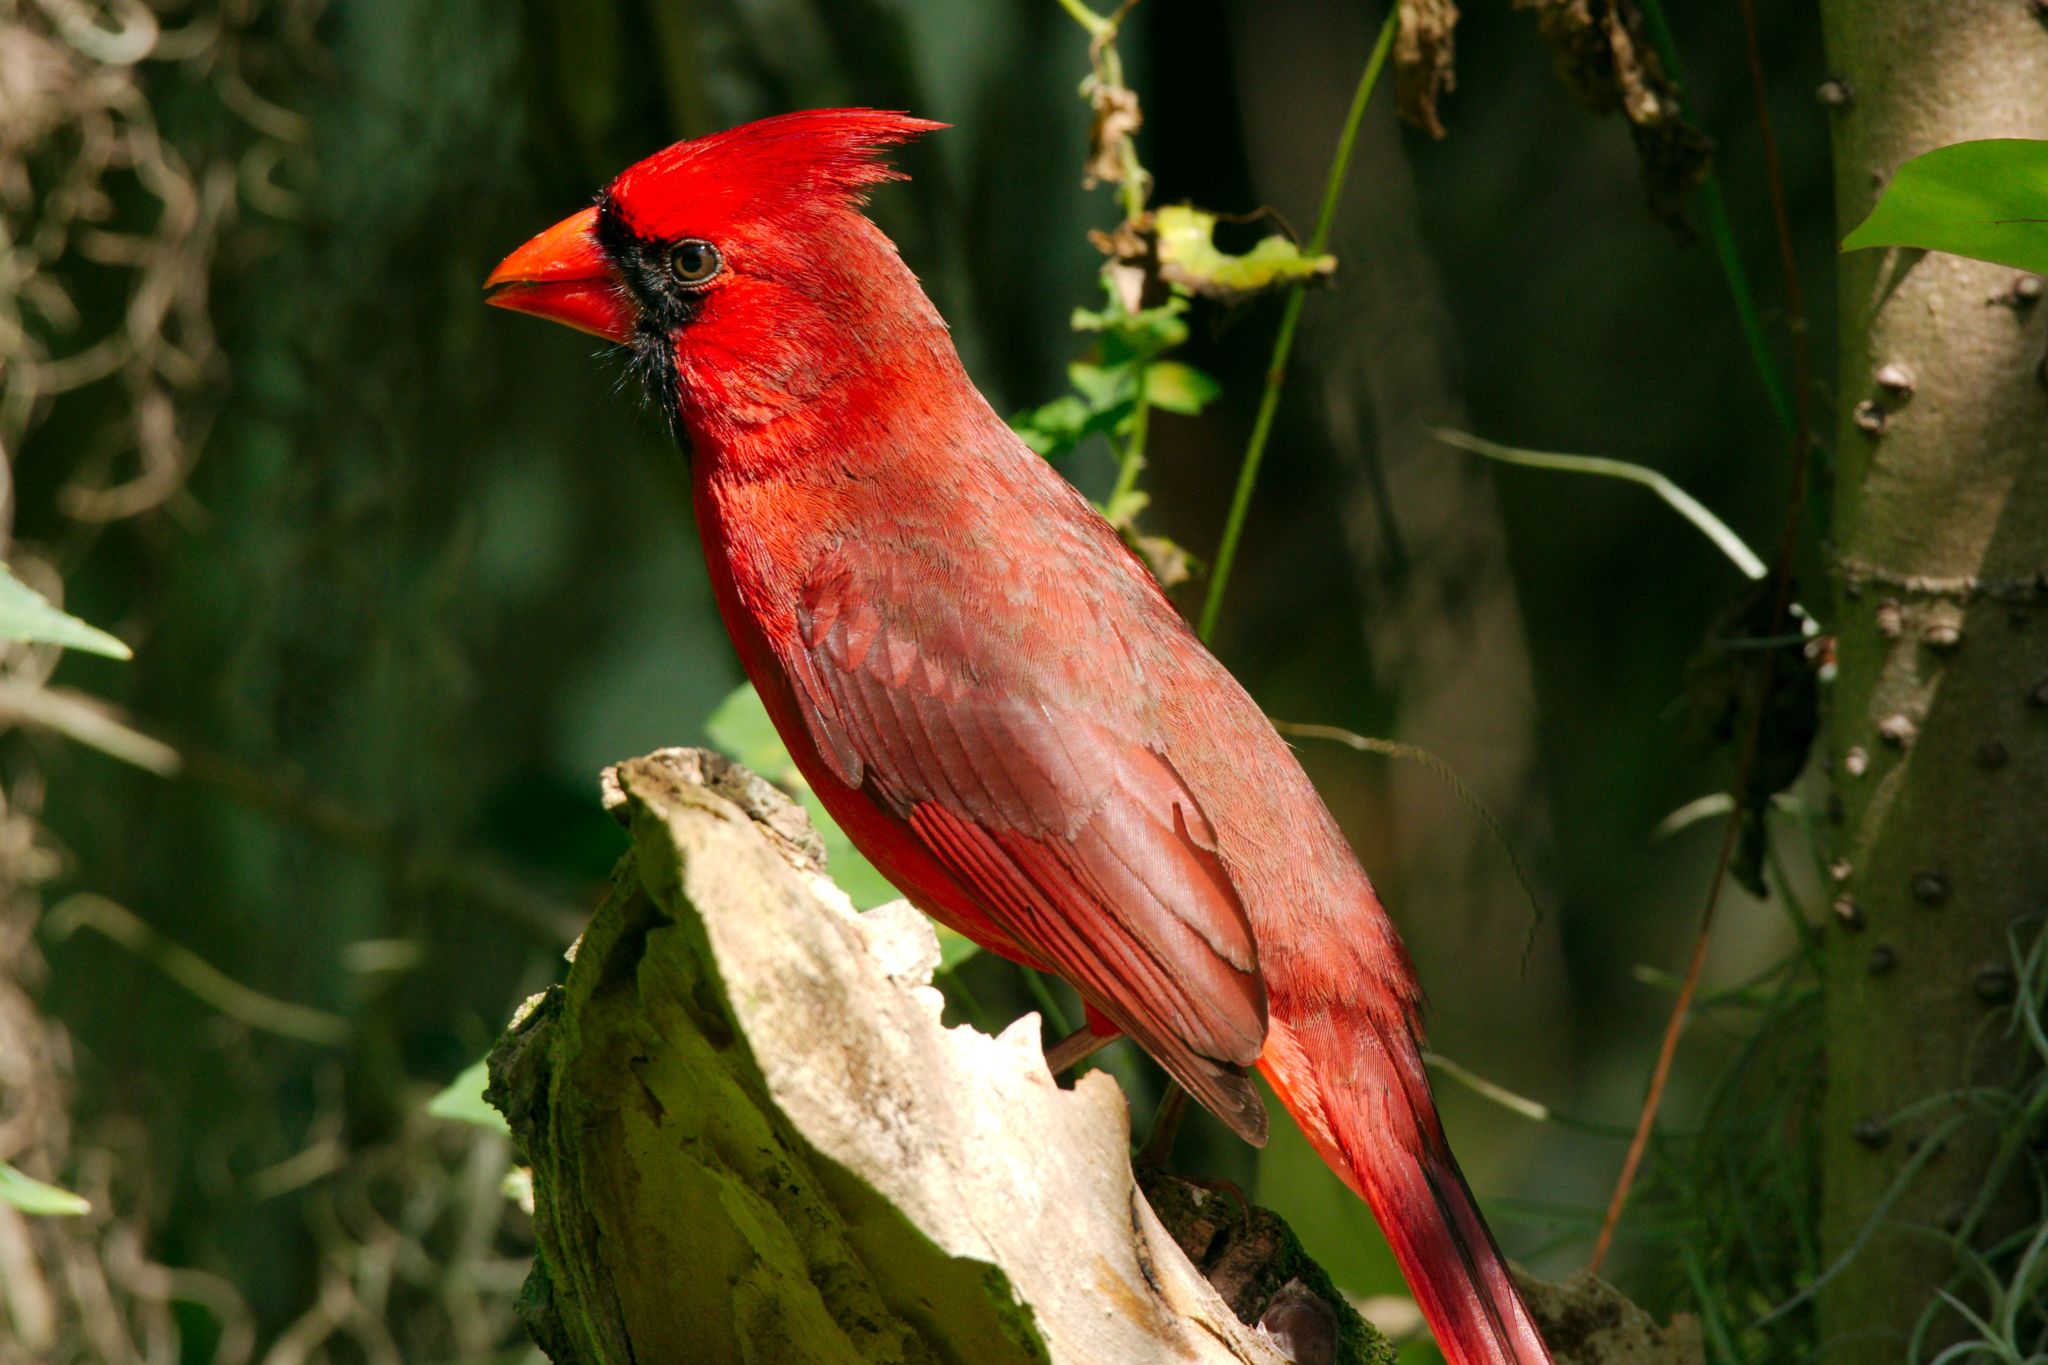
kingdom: Animalia
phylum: Chordata
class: Aves
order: Passeriformes
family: Cardinalidae
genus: Cardinalis
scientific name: Cardinalis cardinalis
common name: Northern cardinal
